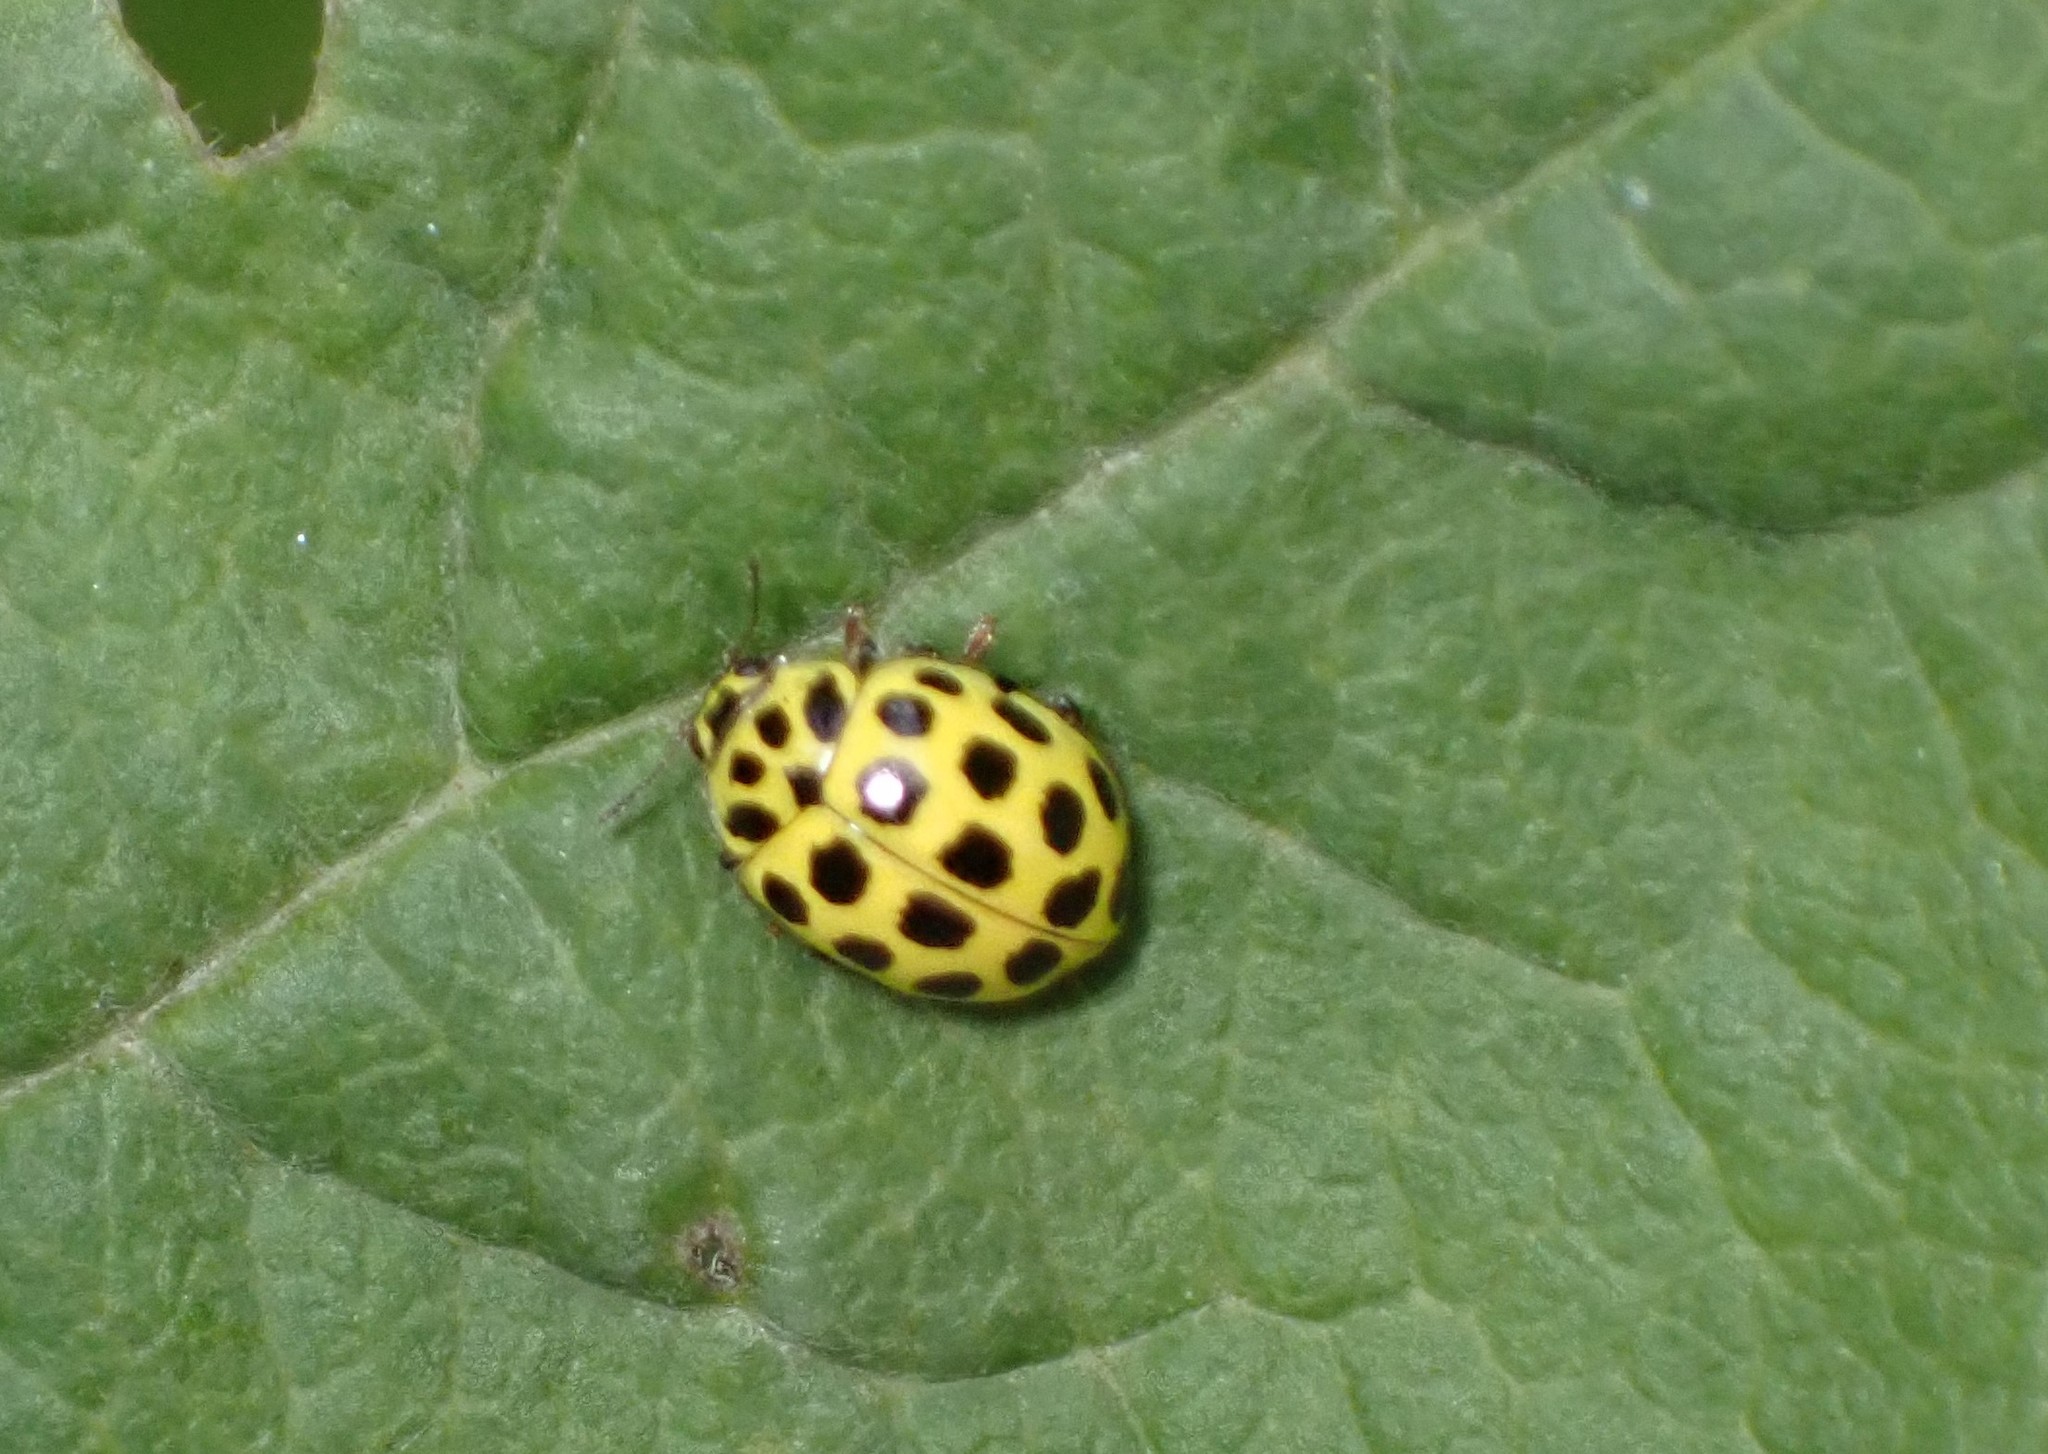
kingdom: Animalia
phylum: Arthropoda
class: Insecta
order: Coleoptera
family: Coccinellidae
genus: Psyllobora
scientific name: Psyllobora vigintiduopunctata
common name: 22-spot ladybird
